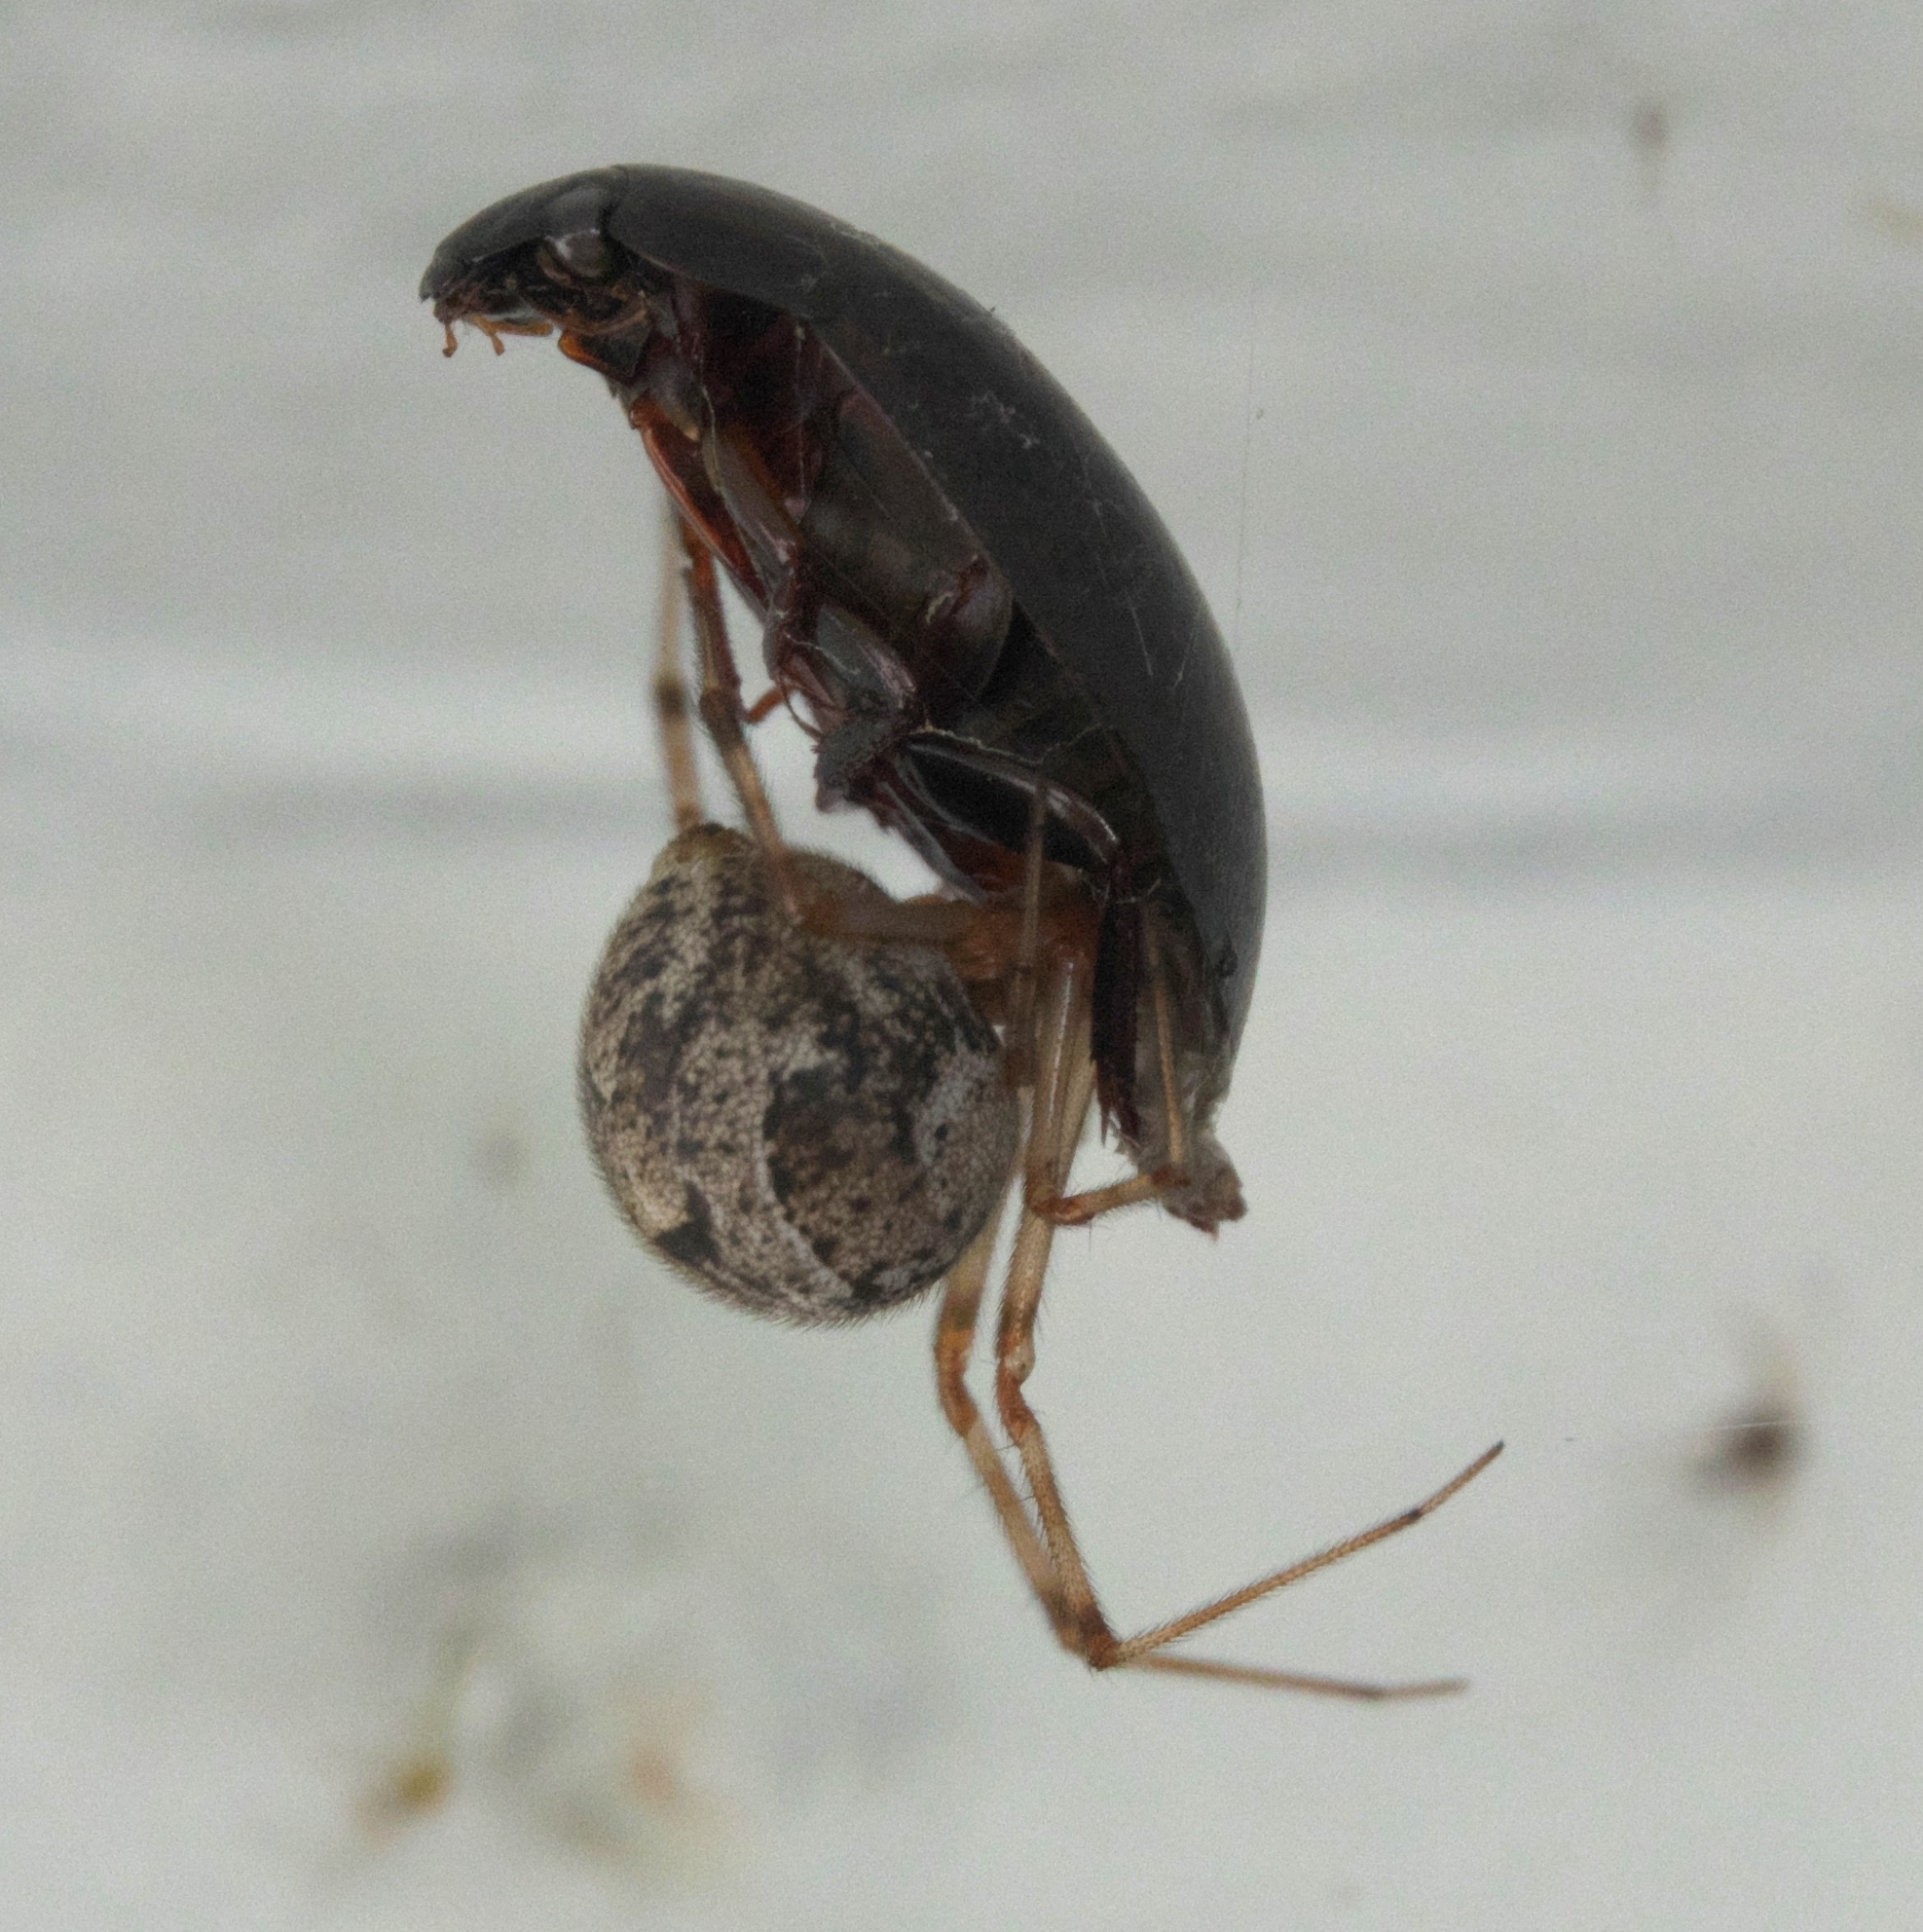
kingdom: Animalia
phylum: Arthropoda
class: Arachnida
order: Araneae
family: Theridiidae
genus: Parasteatoda
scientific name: Parasteatoda tepidariorum
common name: Common house spider
